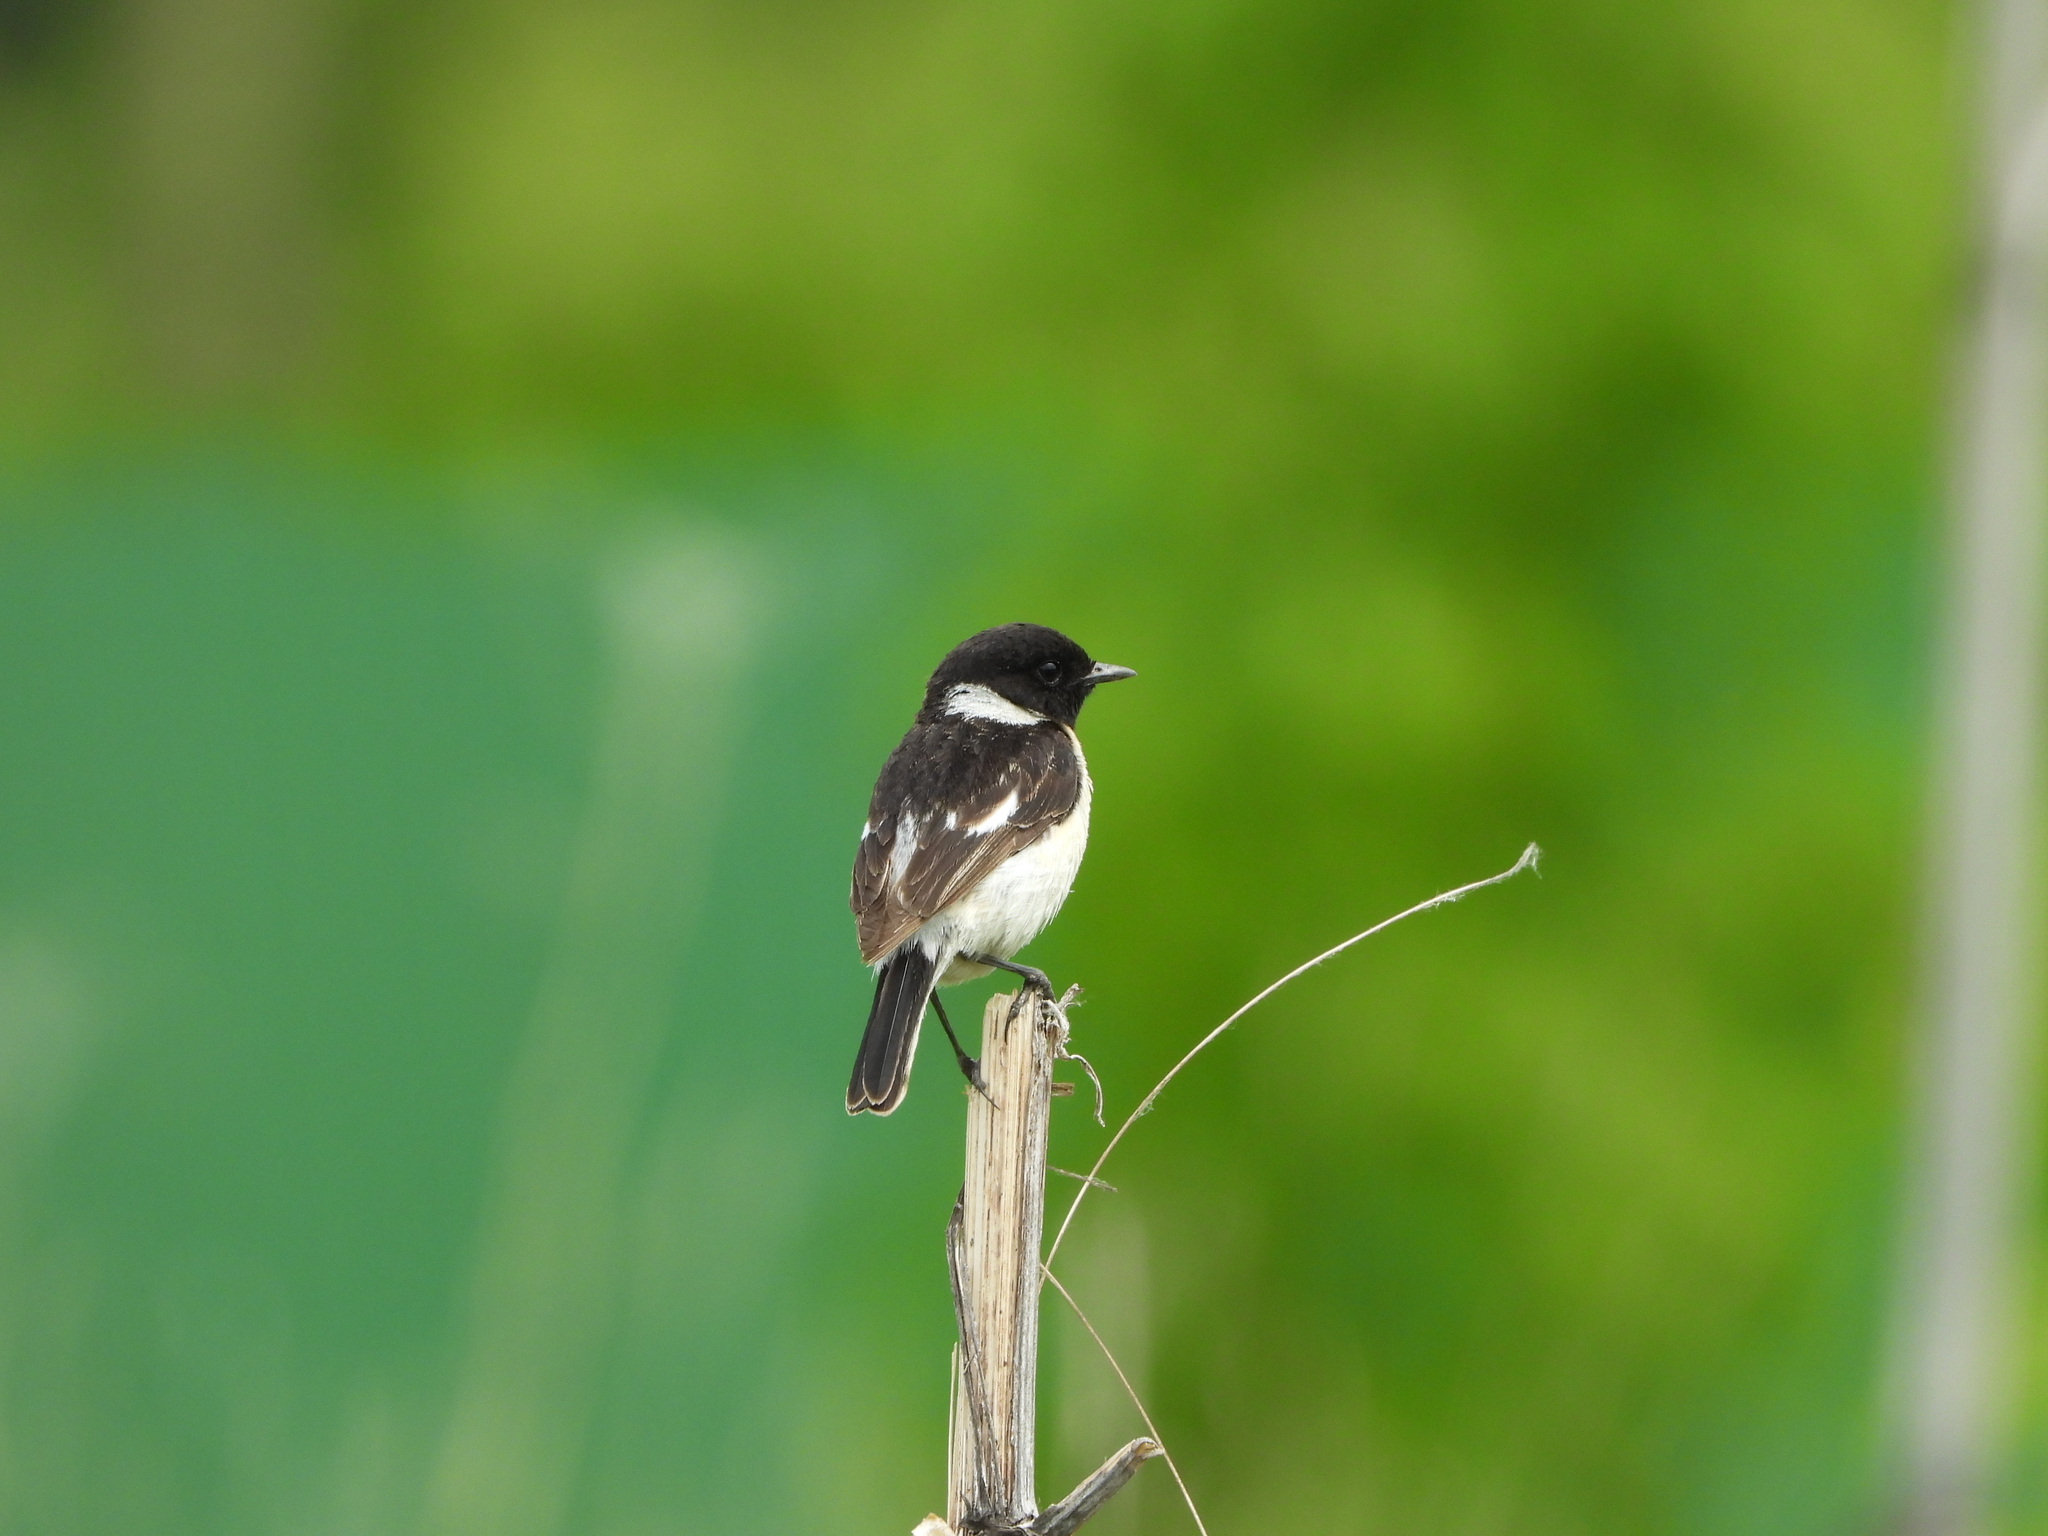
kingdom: Animalia
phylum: Chordata
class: Aves
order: Passeriformes
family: Muscicapidae
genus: Saxicola
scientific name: Saxicola maurus
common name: Siberian stonechat
